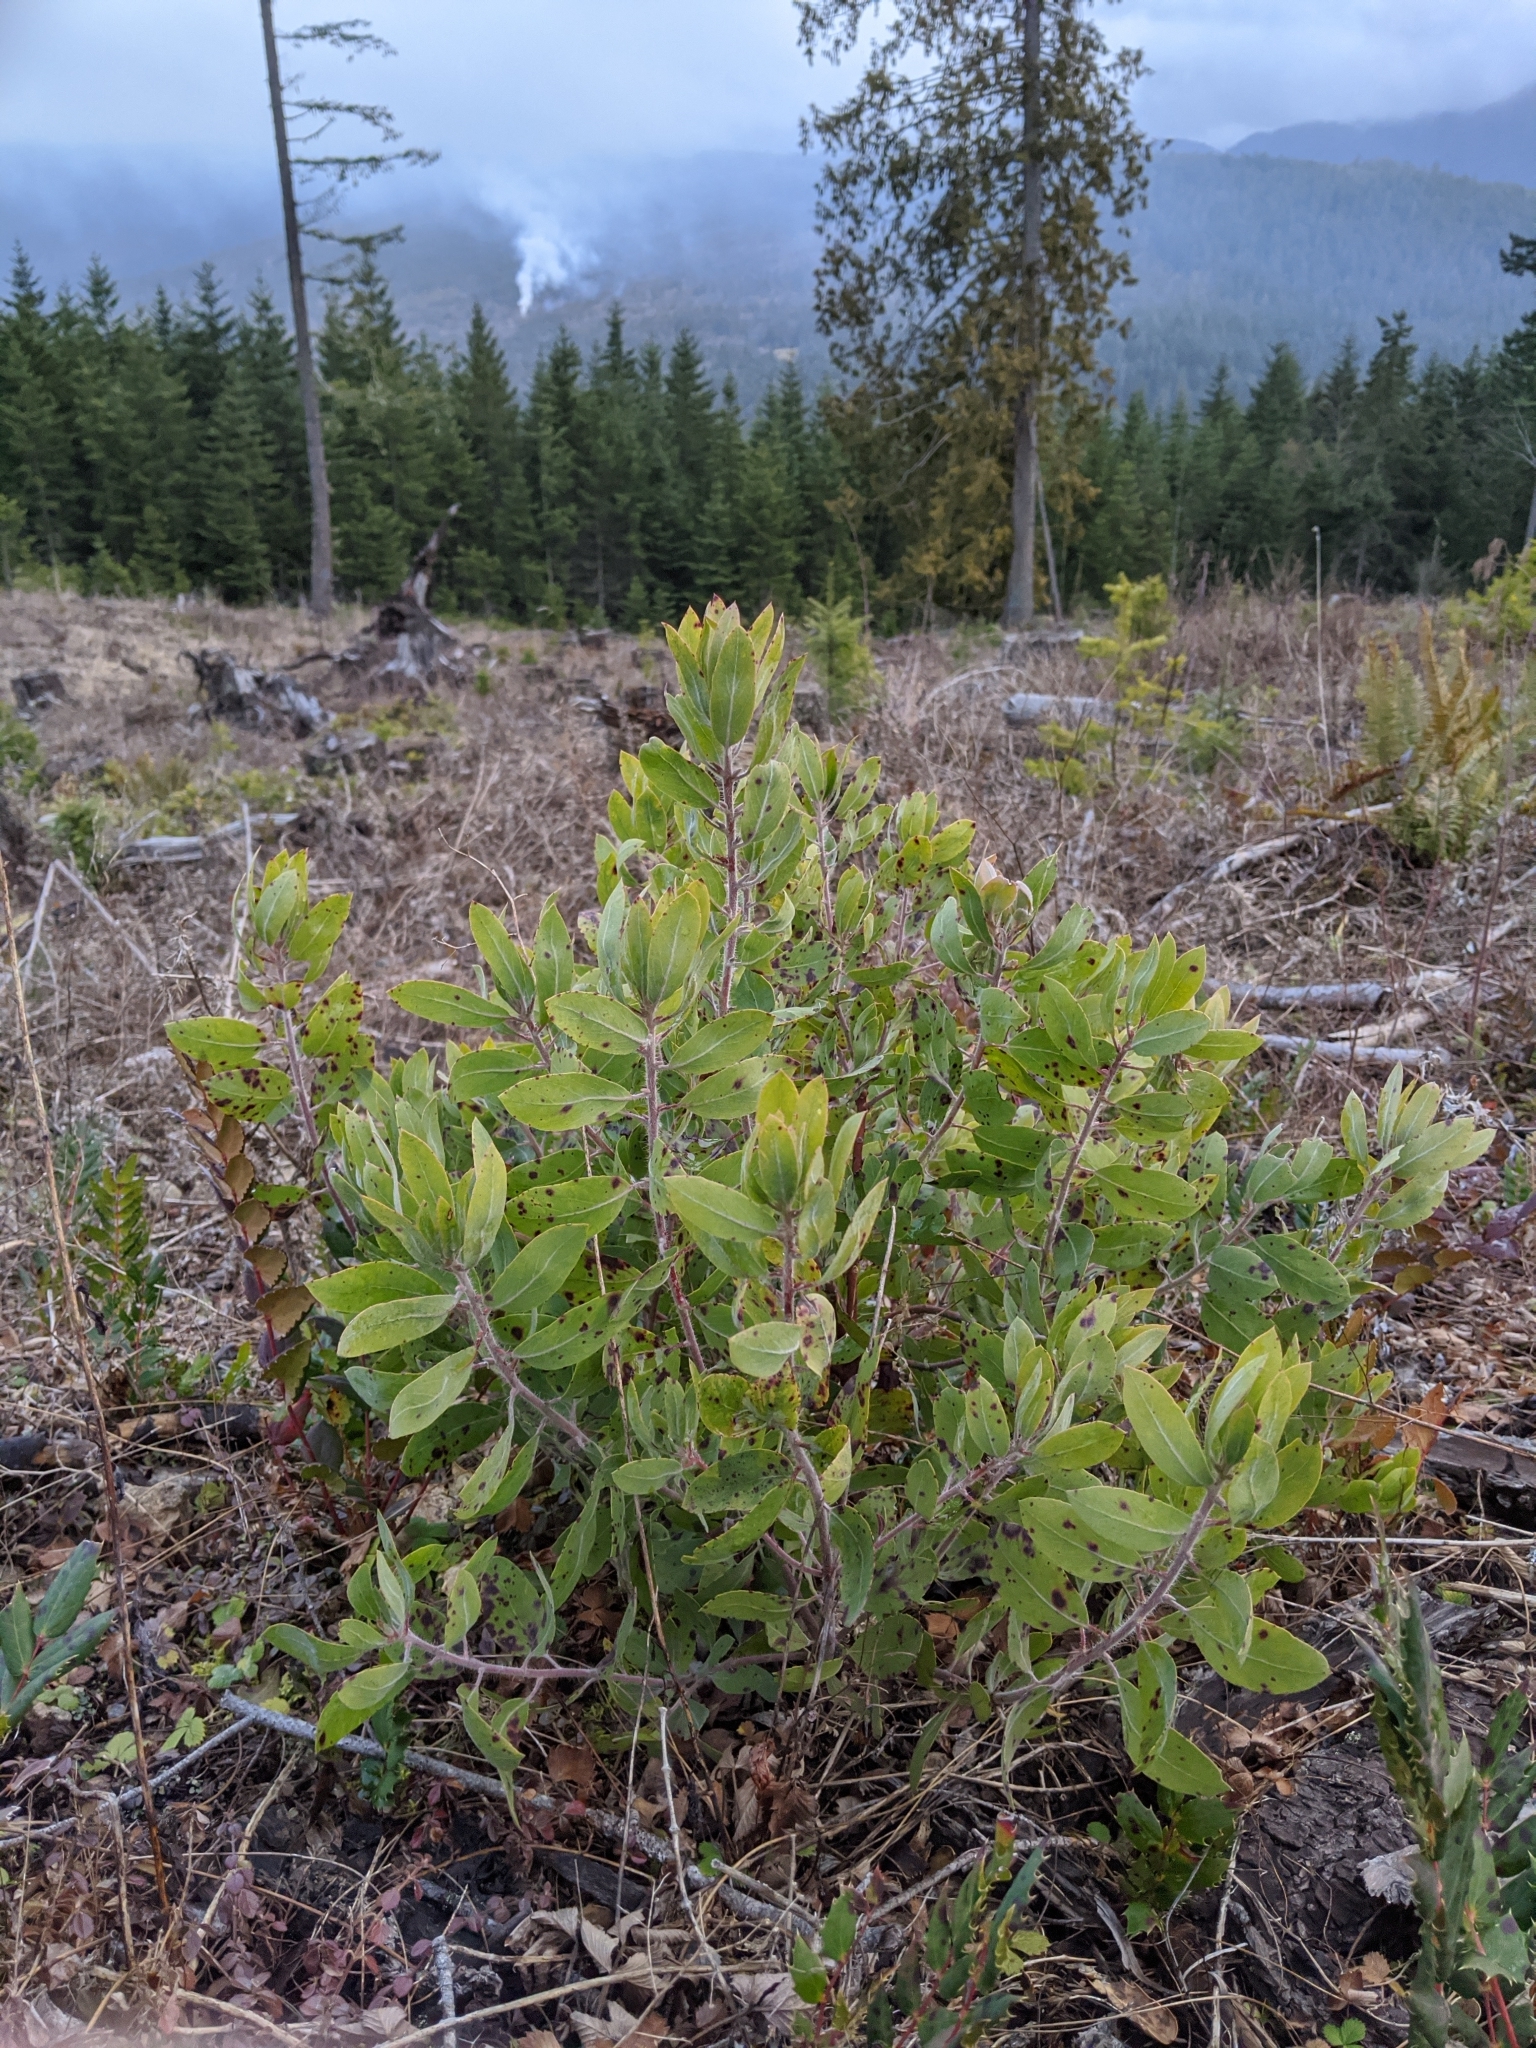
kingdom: Plantae
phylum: Tracheophyta
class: Magnoliopsida
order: Ericales
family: Ericaceae
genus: Arctostaphylos
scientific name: Arctostaphylos columbiana
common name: Bristly bearberry
